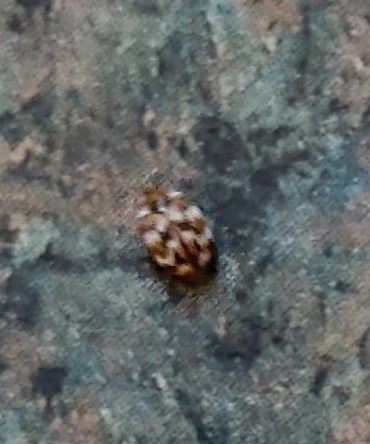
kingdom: Animalia
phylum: Arthropoda
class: Insecta
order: Coleoptera
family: Dermestidae
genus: Anthrenus
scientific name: Anthrenus verbasci
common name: Varied carpet beetle
